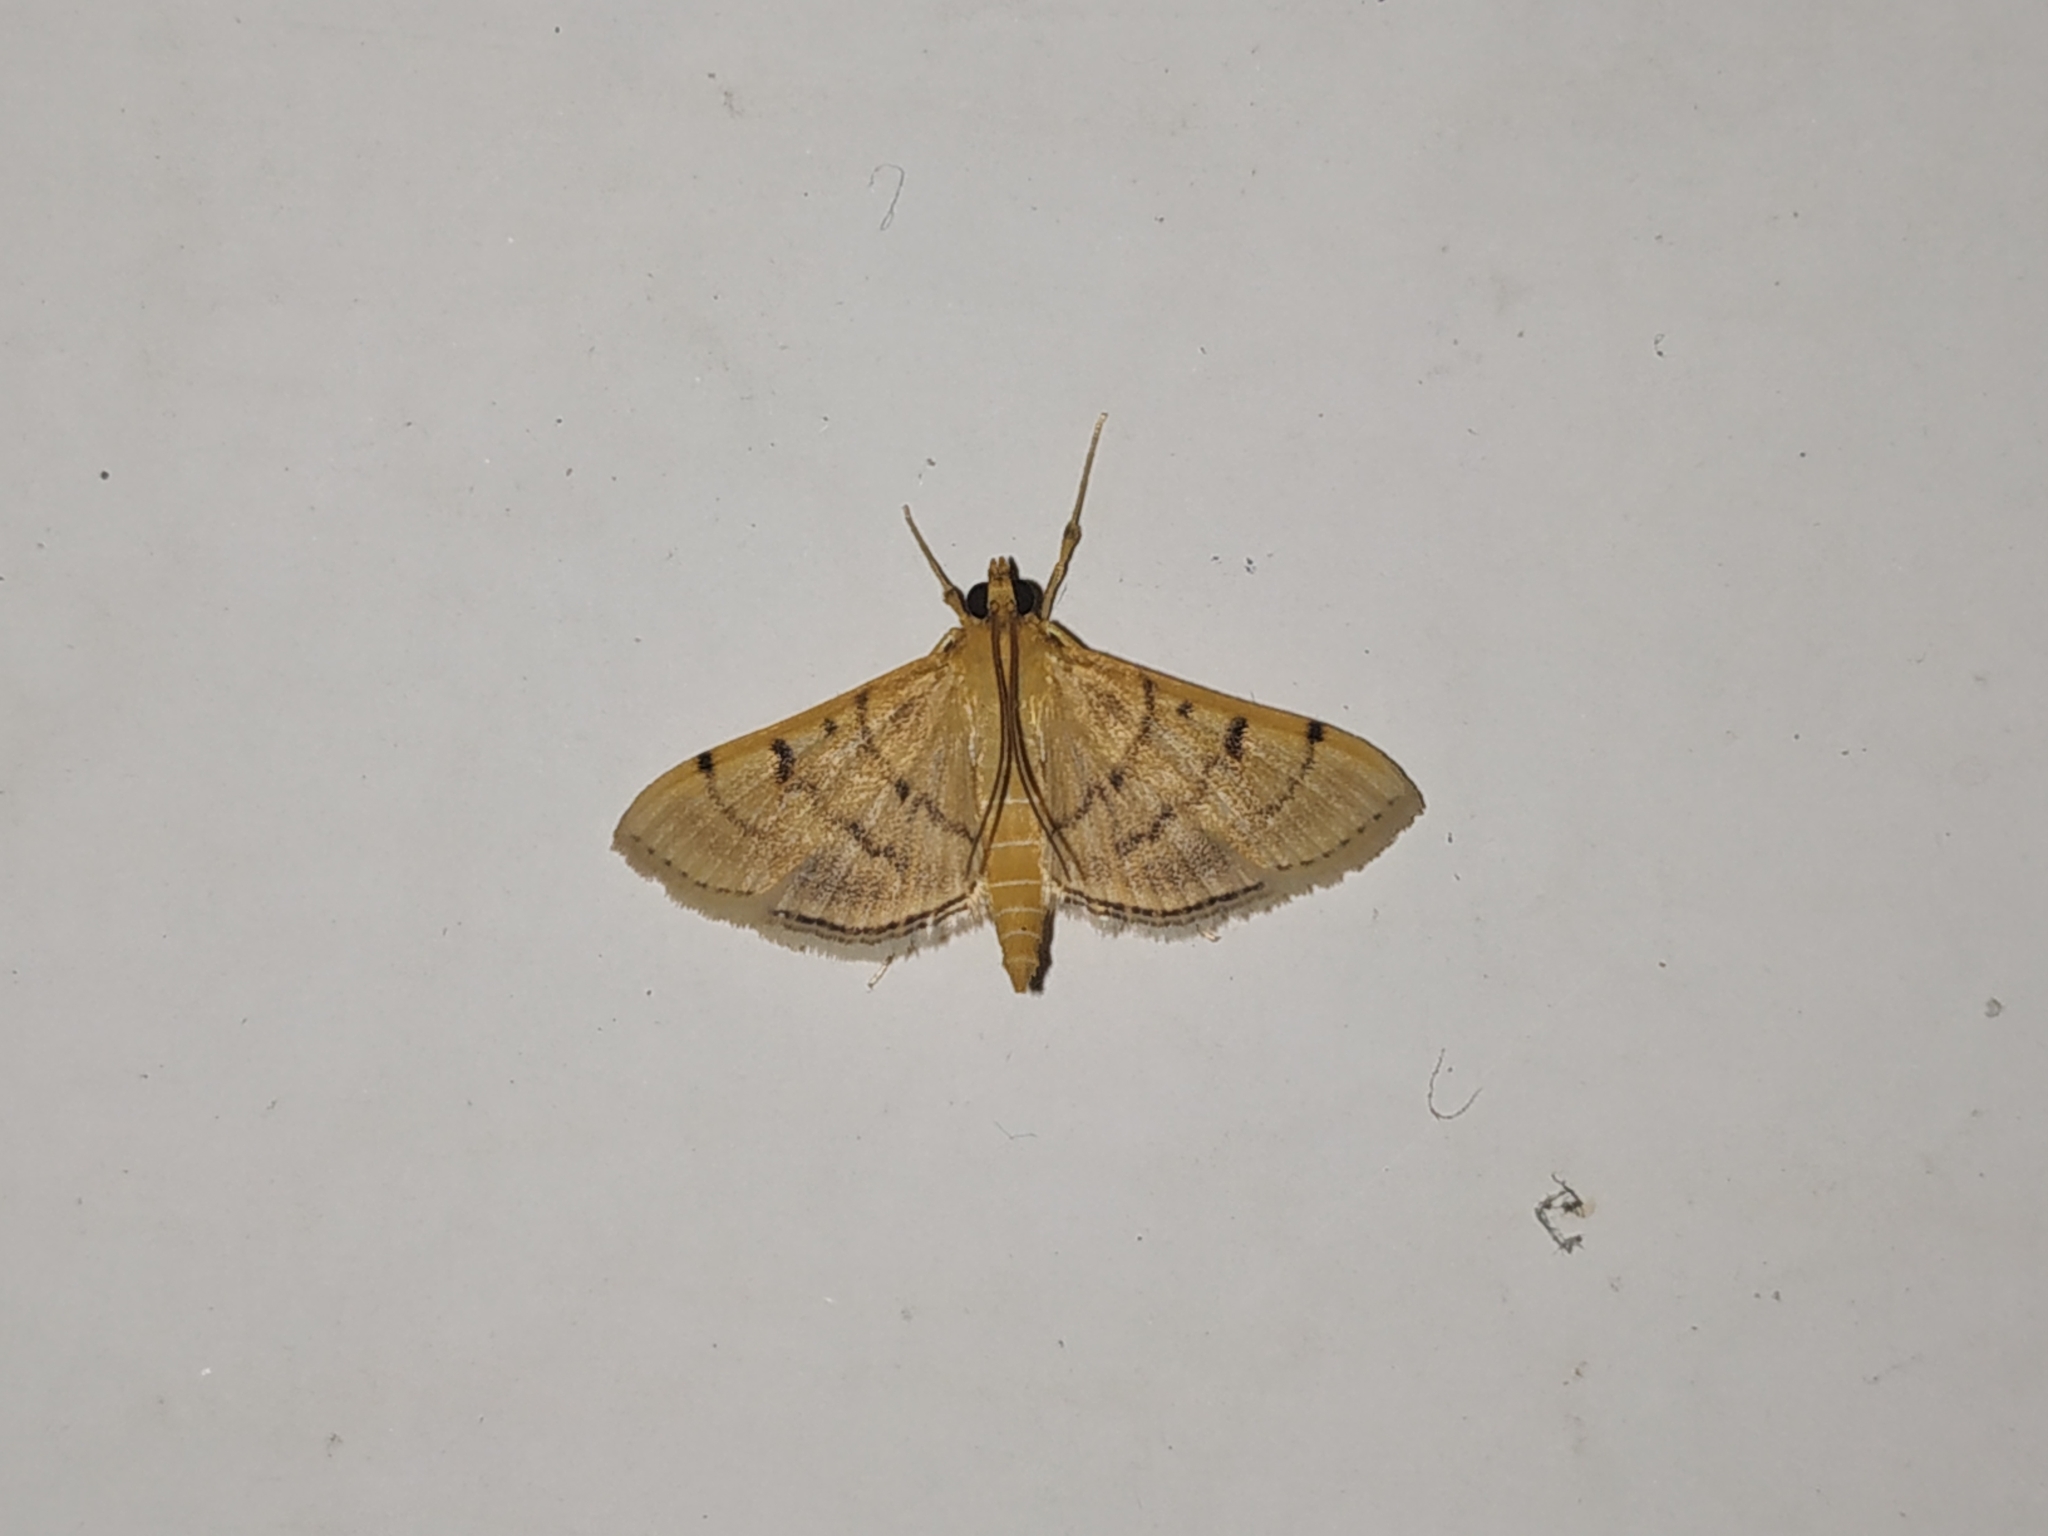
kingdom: Animalia
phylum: Arthropoda
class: Insecta
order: Lepidoptera
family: Crambidae
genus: Omiodes
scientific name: Omiodes indicata
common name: Bean-leaf webworm moth
